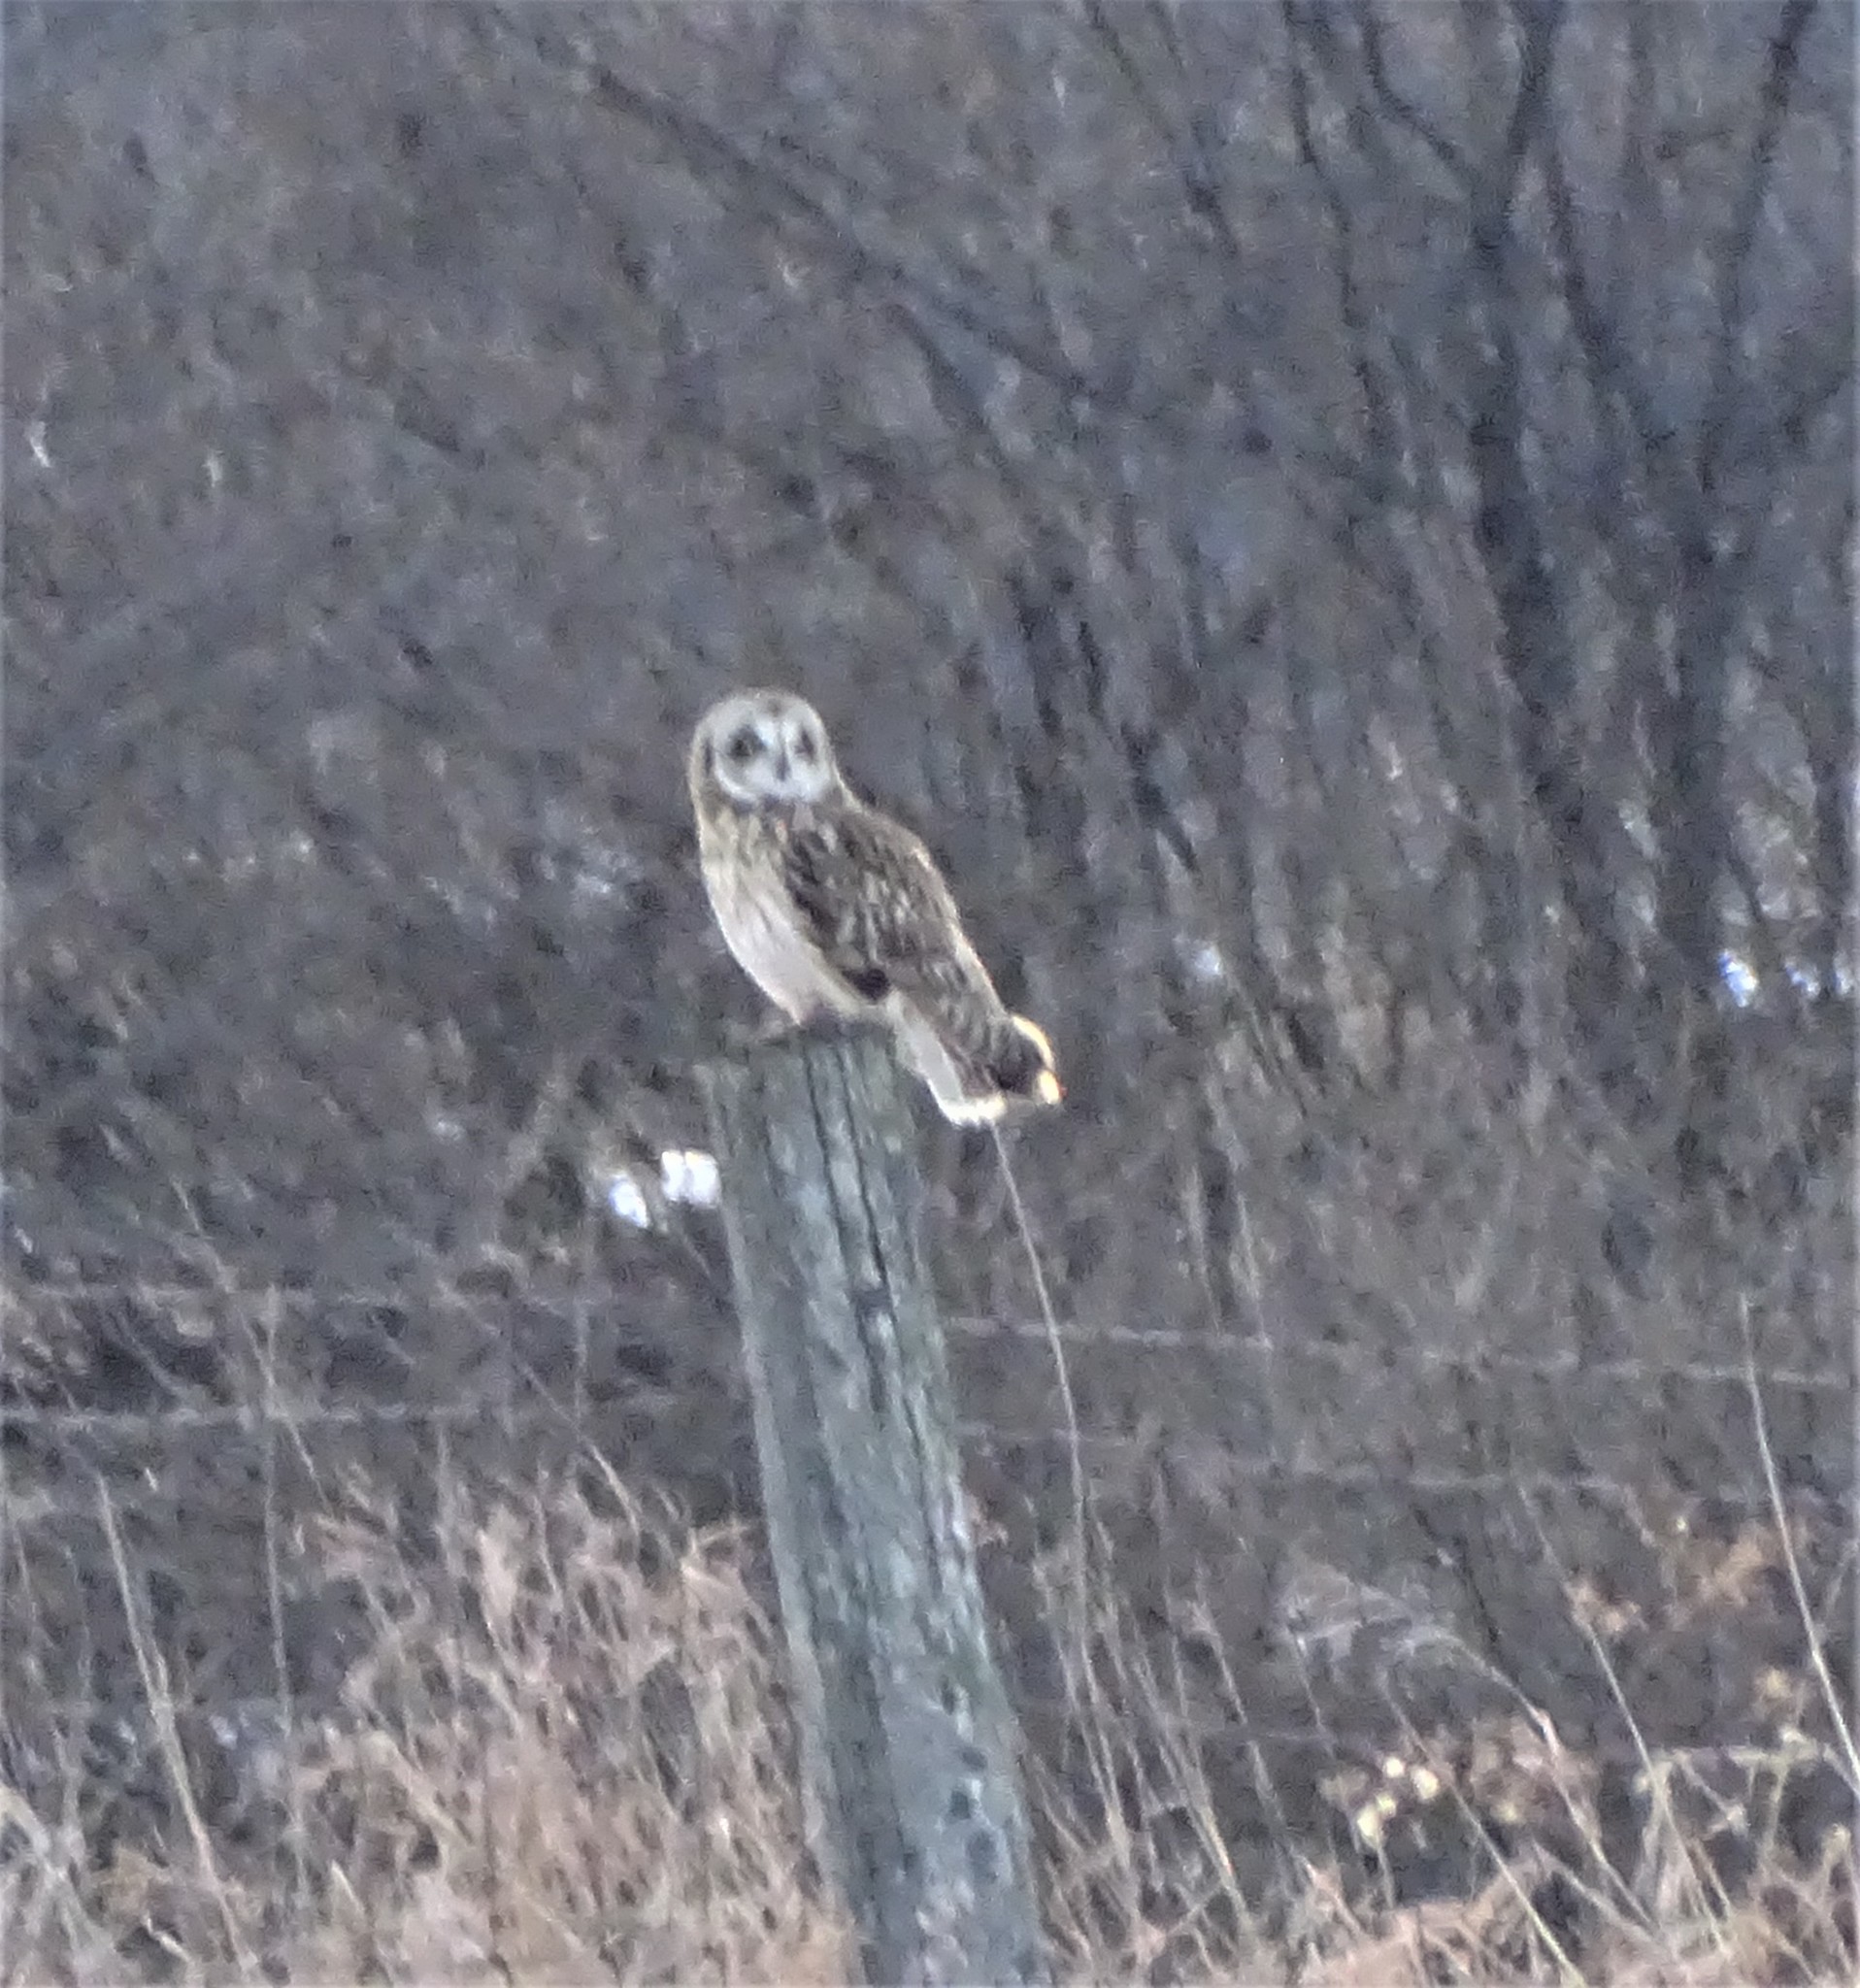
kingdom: Animalia
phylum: Chordata
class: Aves
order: Strigiformes
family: Strigidae
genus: Asio
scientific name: Asio flammeus
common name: Short-eared owl
